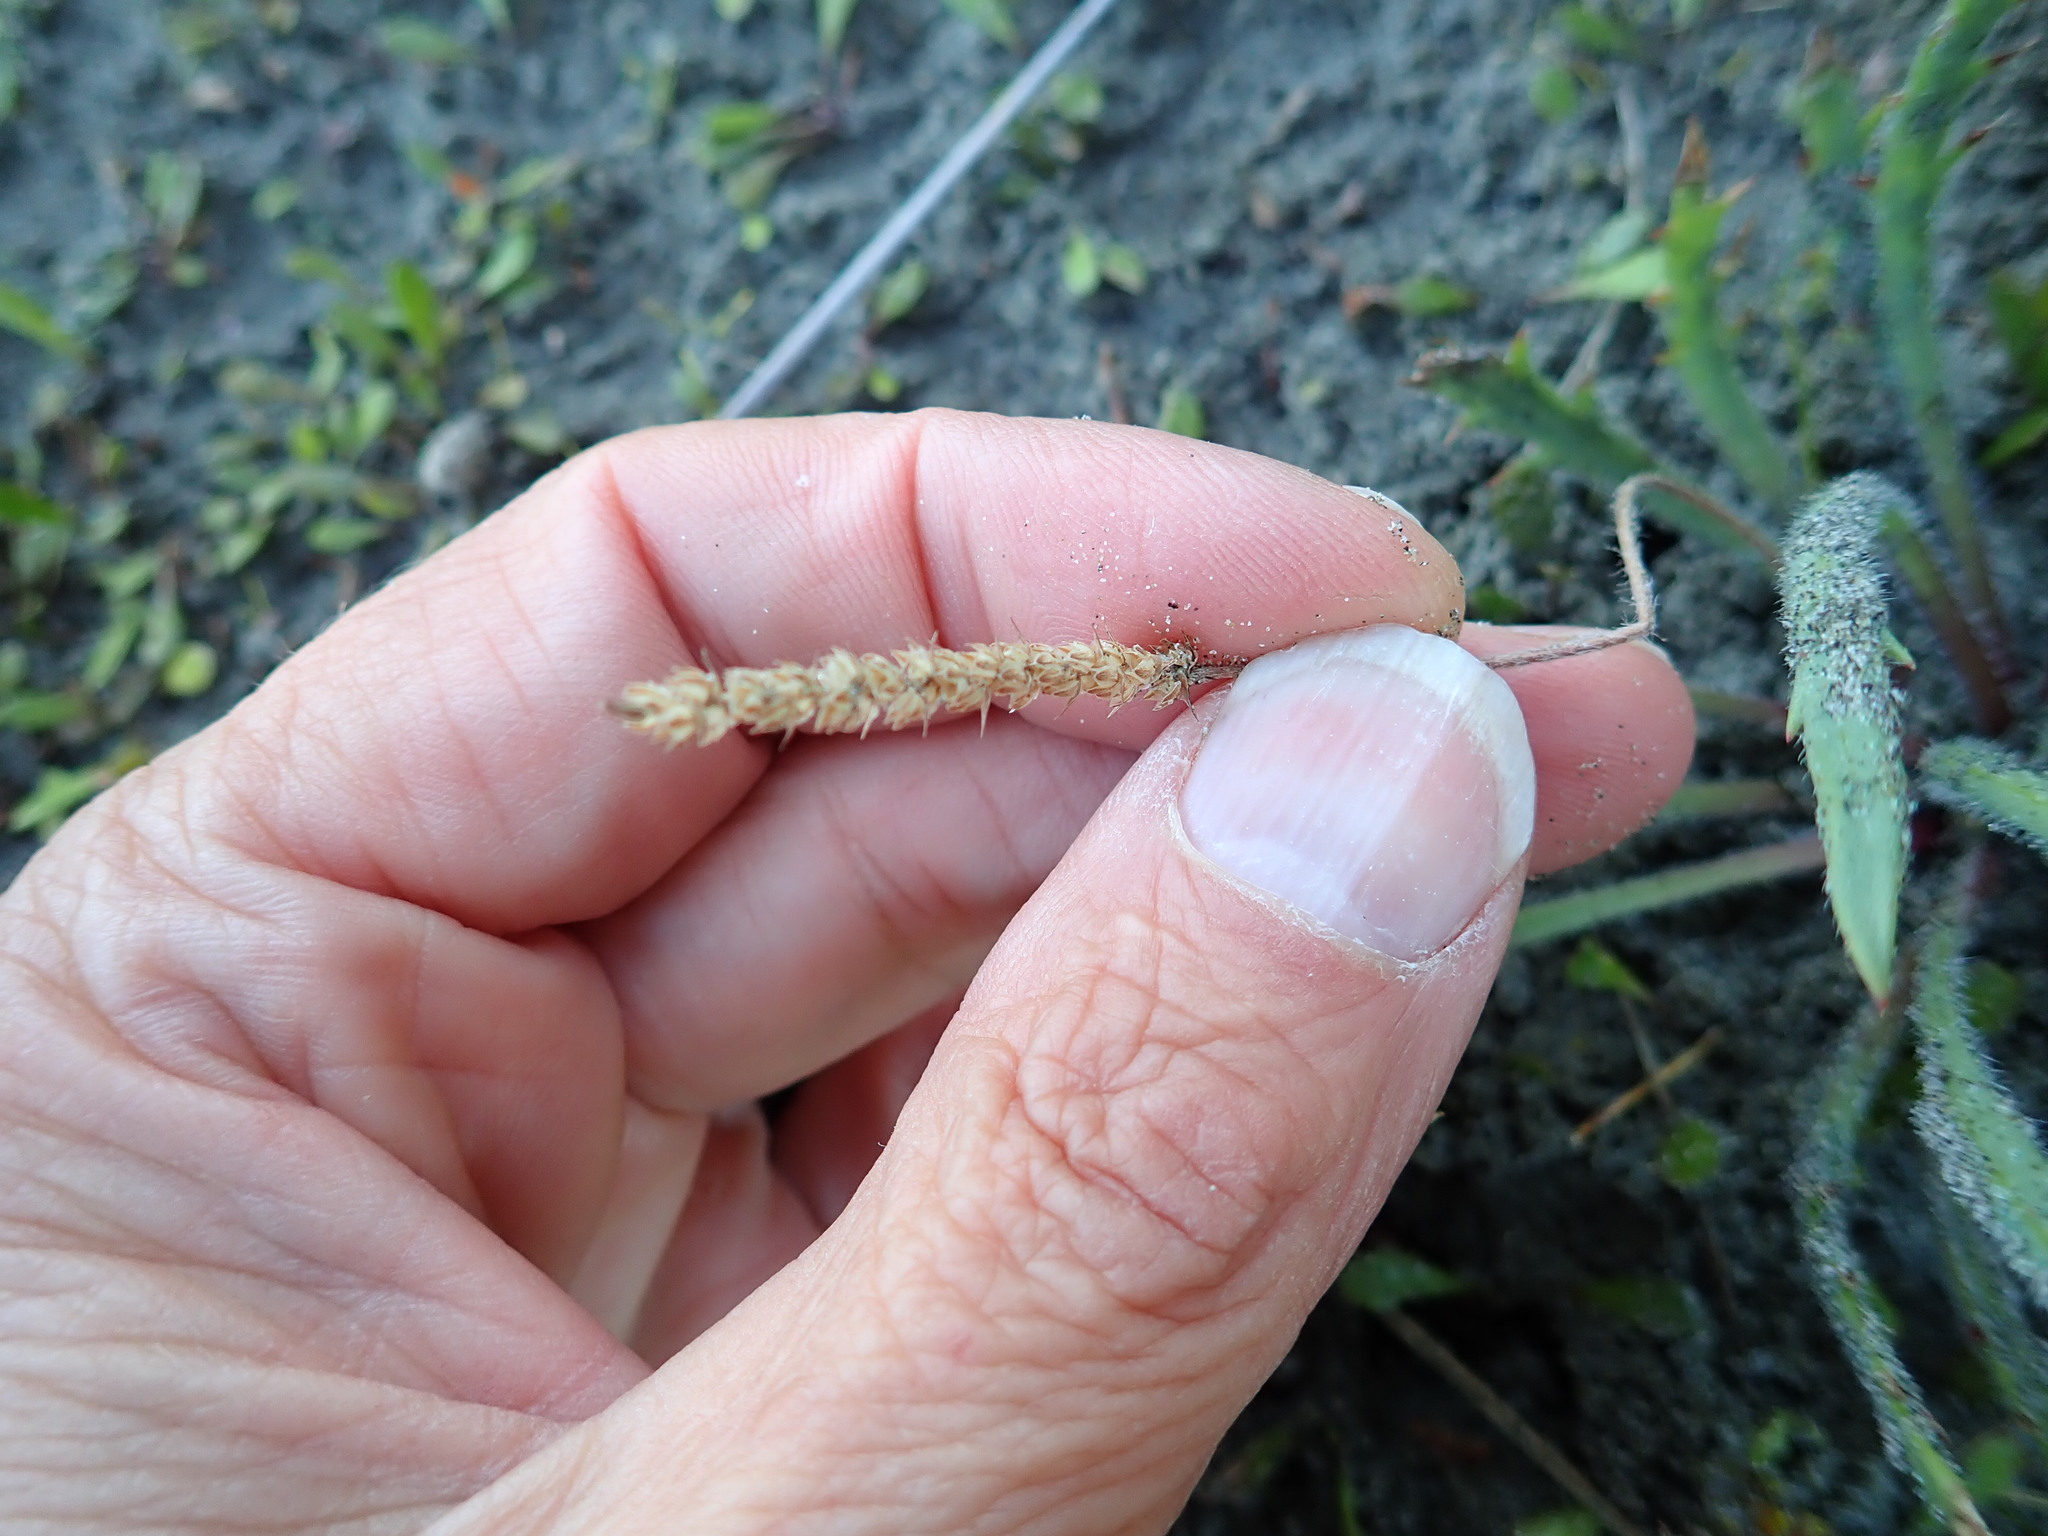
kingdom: Plantae
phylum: Tracheophyta
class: Magnoliopsida
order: Lamiales
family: Plantaginaceae
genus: Plantago
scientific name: Plantago coronopus
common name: Buck's-horn plantain
